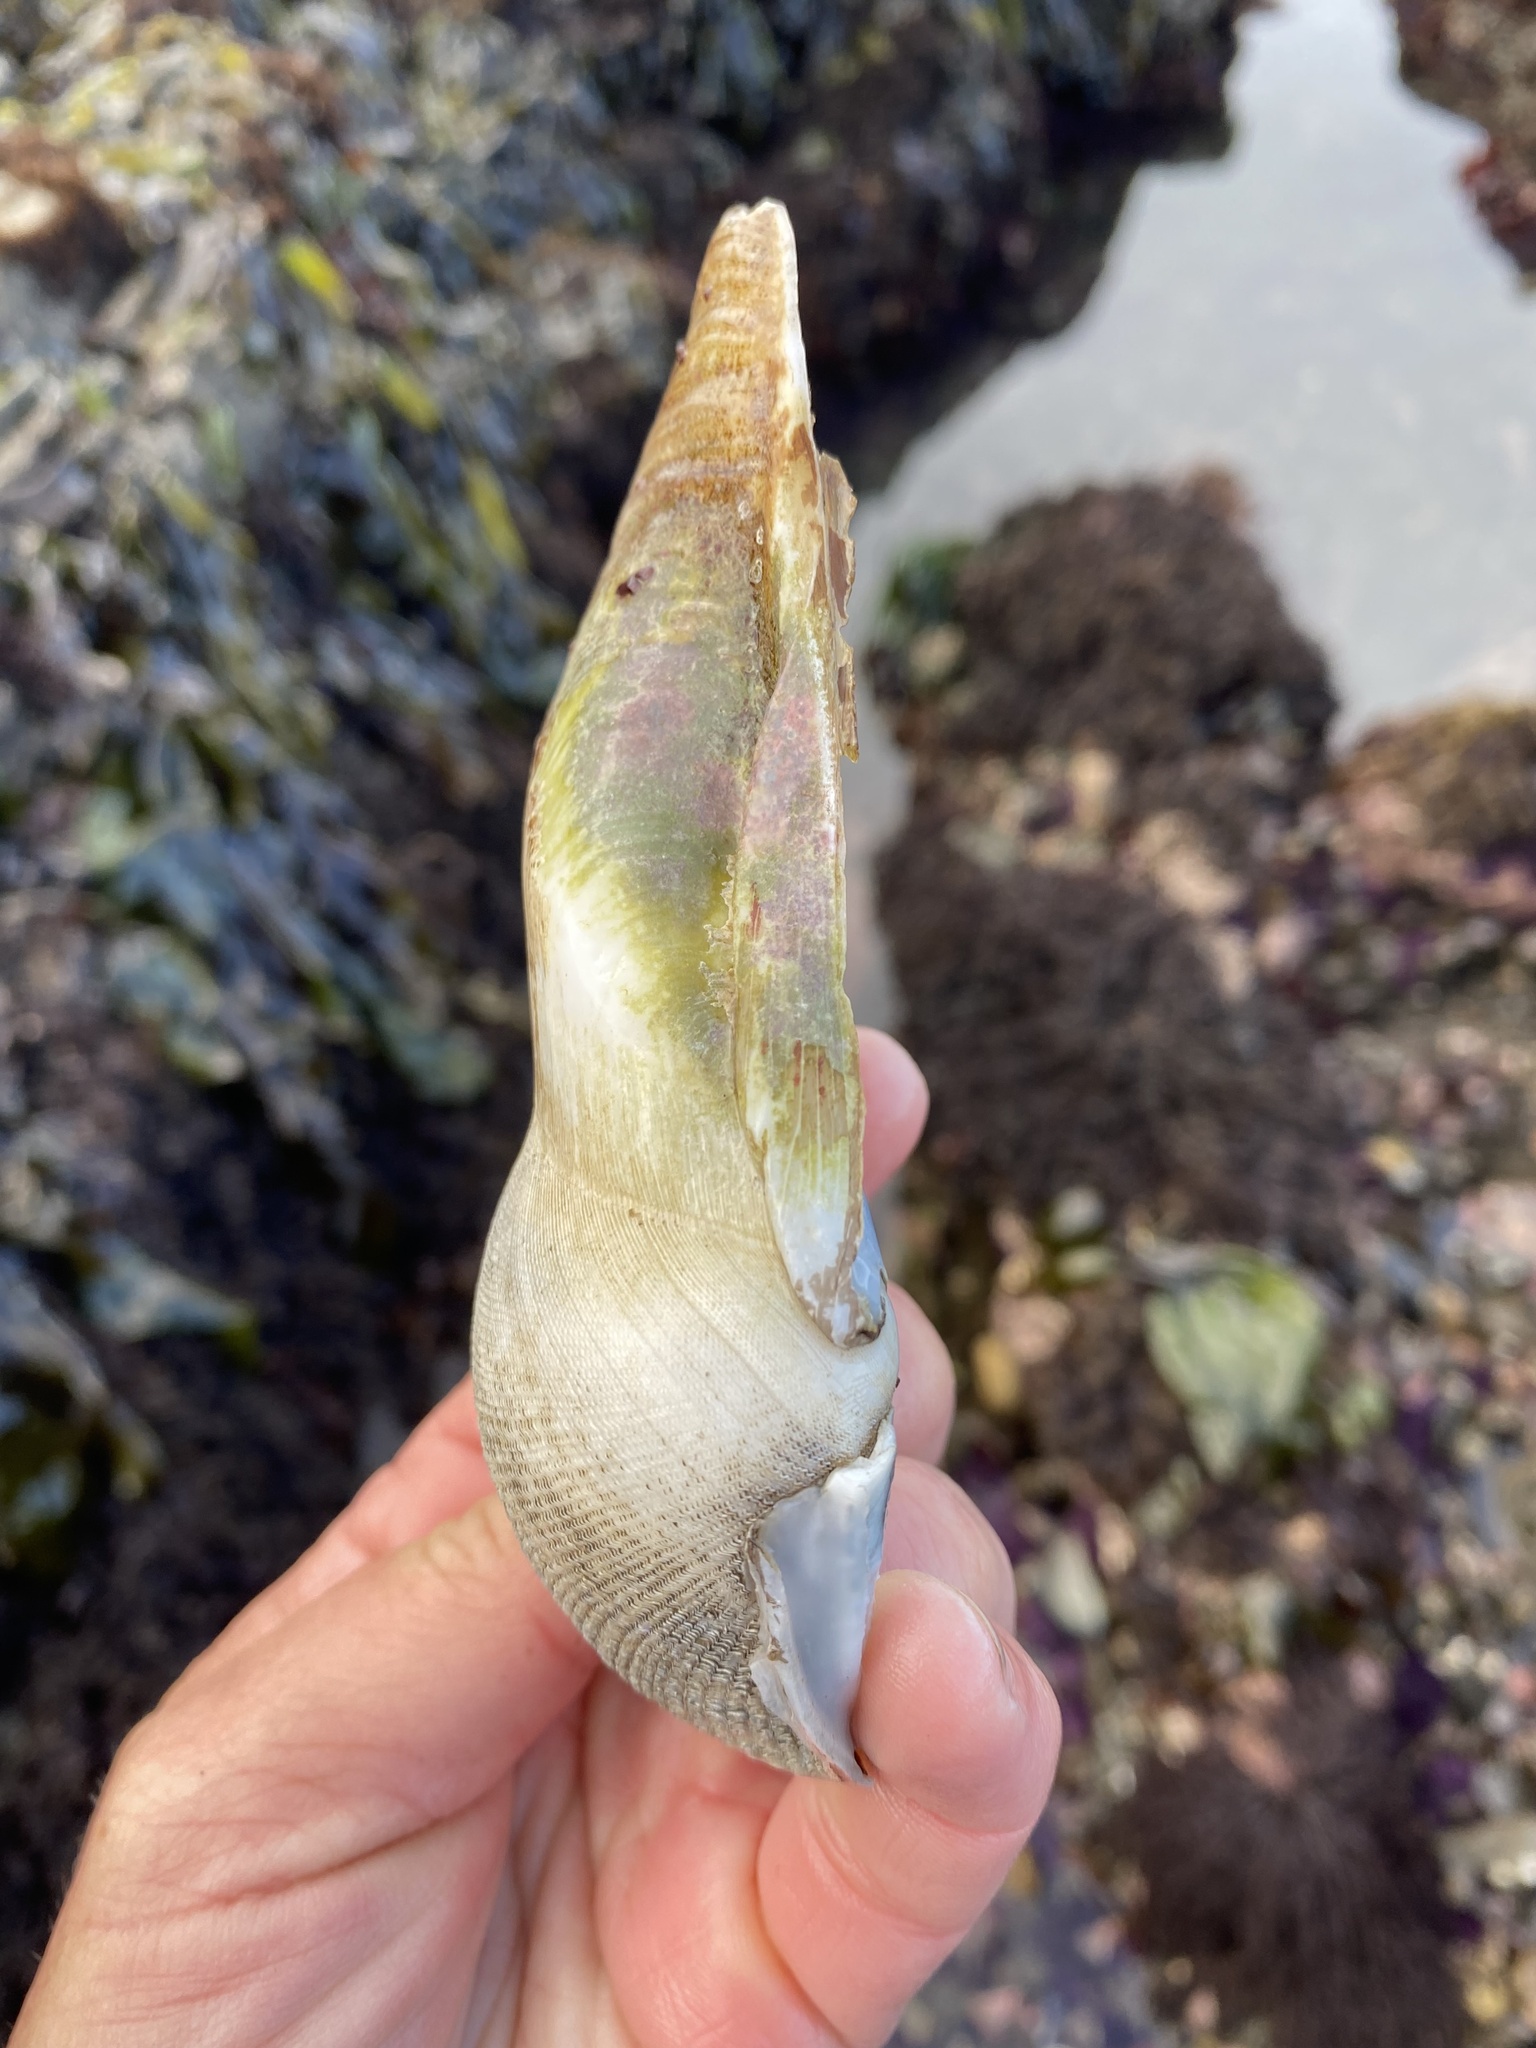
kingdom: Animalia
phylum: Mollusca
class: Bivalvia
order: Myida
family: Pholadidae
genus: Parapholas
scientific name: Parapholas californica
